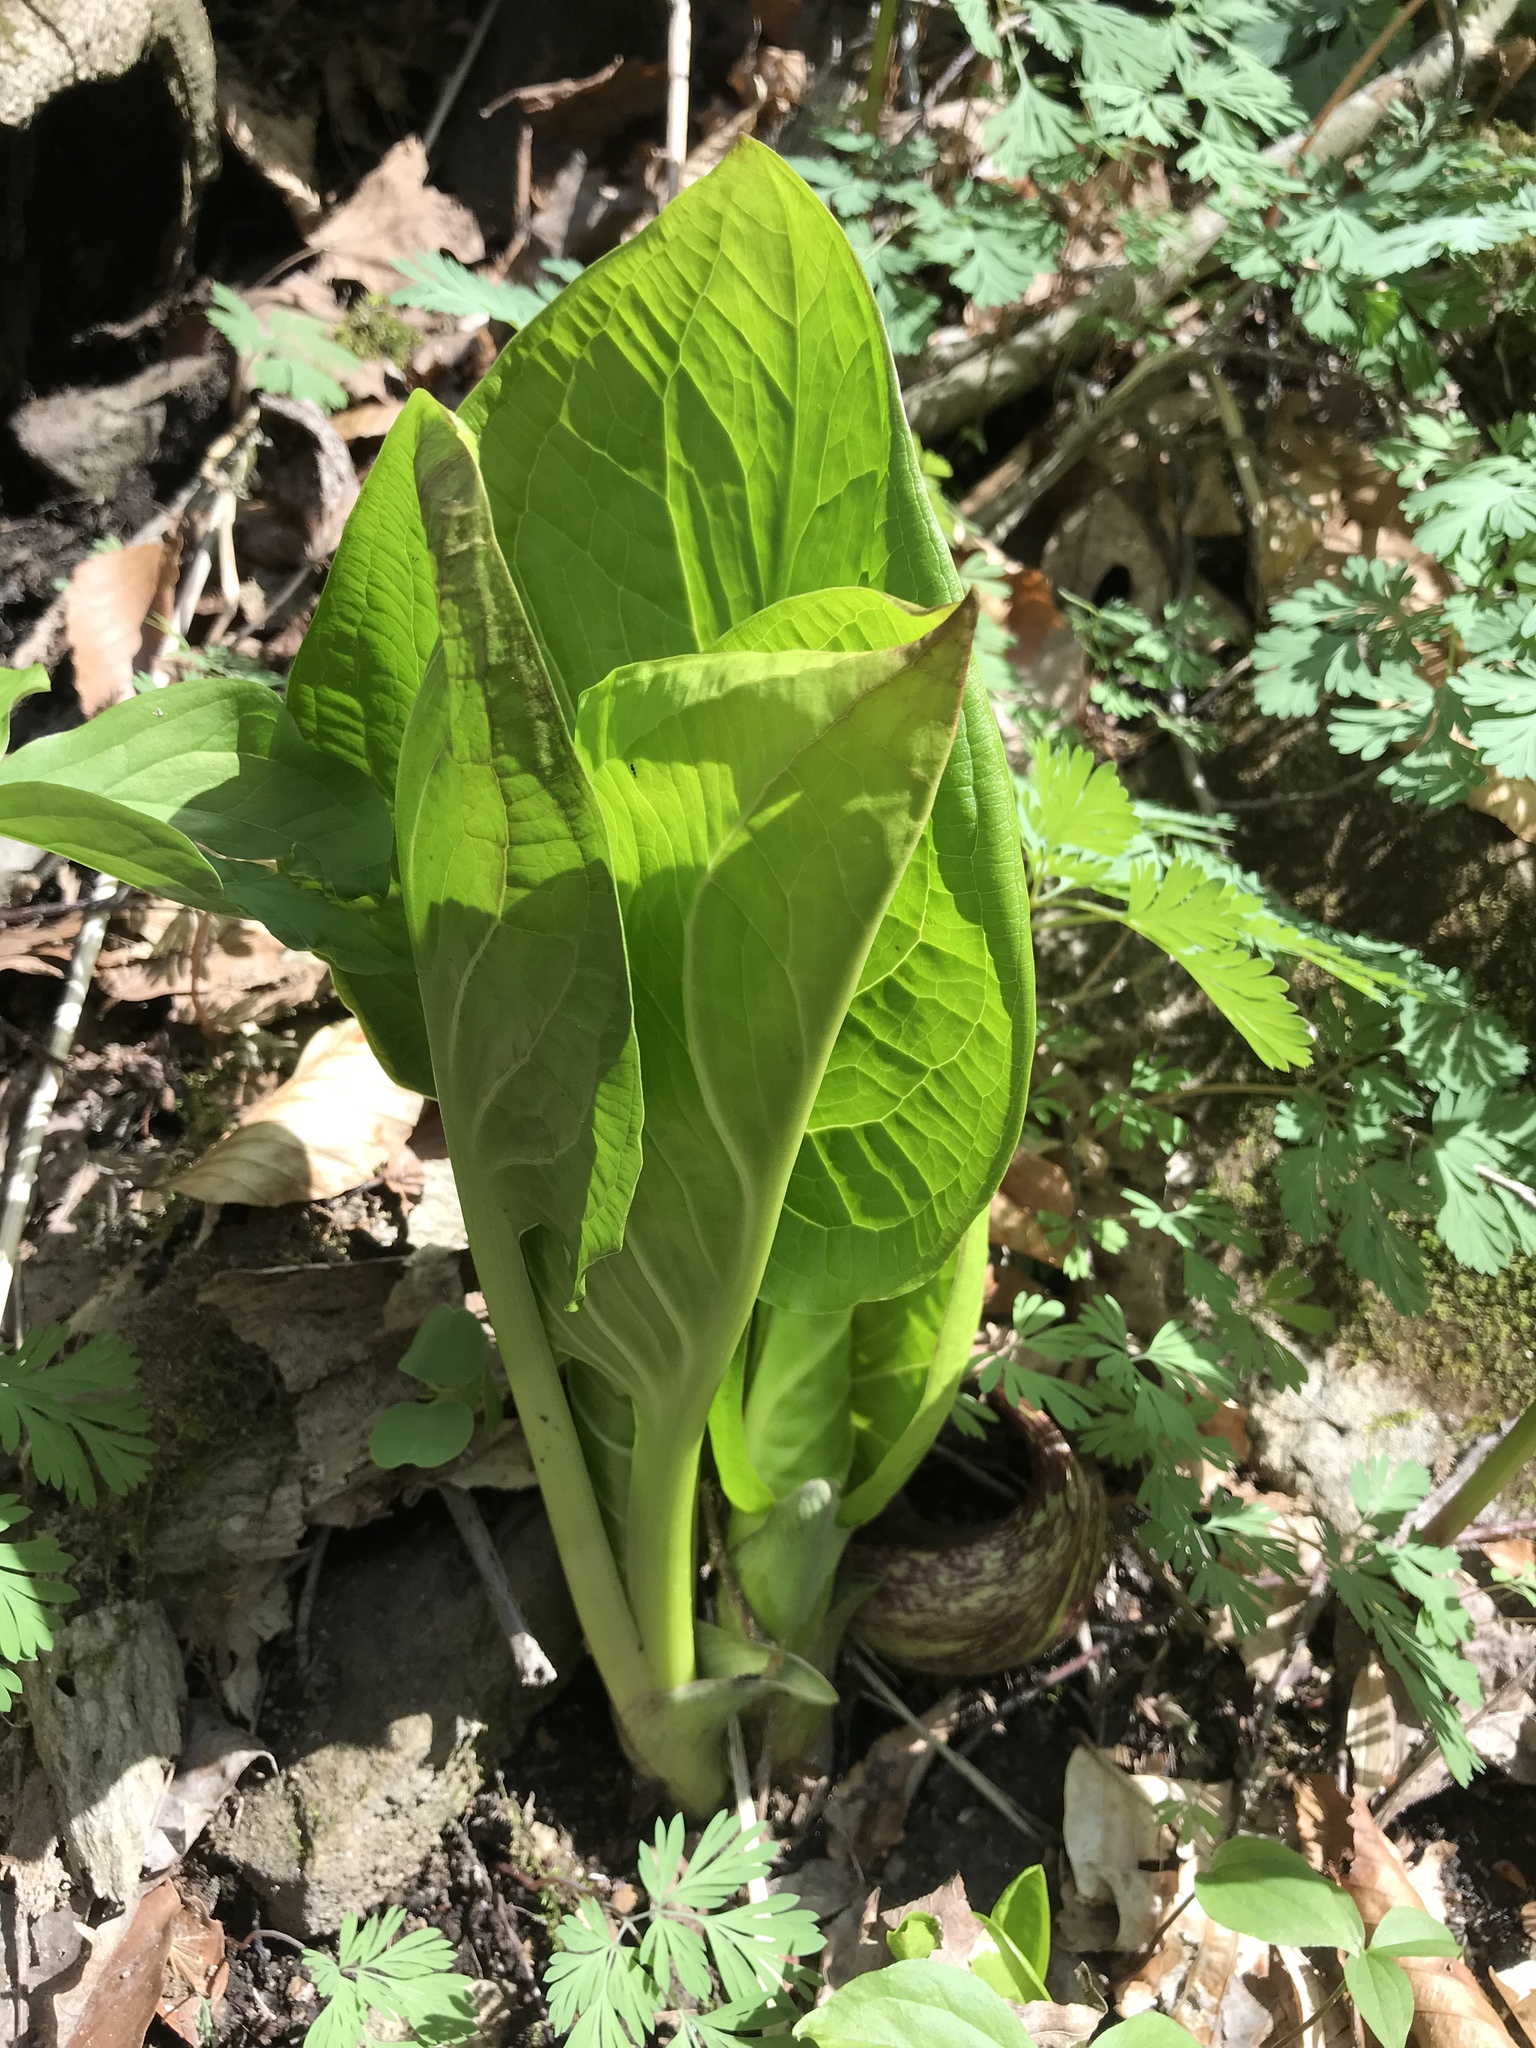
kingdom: Plantae
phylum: Tracheophyta
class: Liliopsida
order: Alismatales
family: Araceae
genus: Symplocarpus
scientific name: Symplocarpus foetidus
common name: Eastern skunk cabbage
